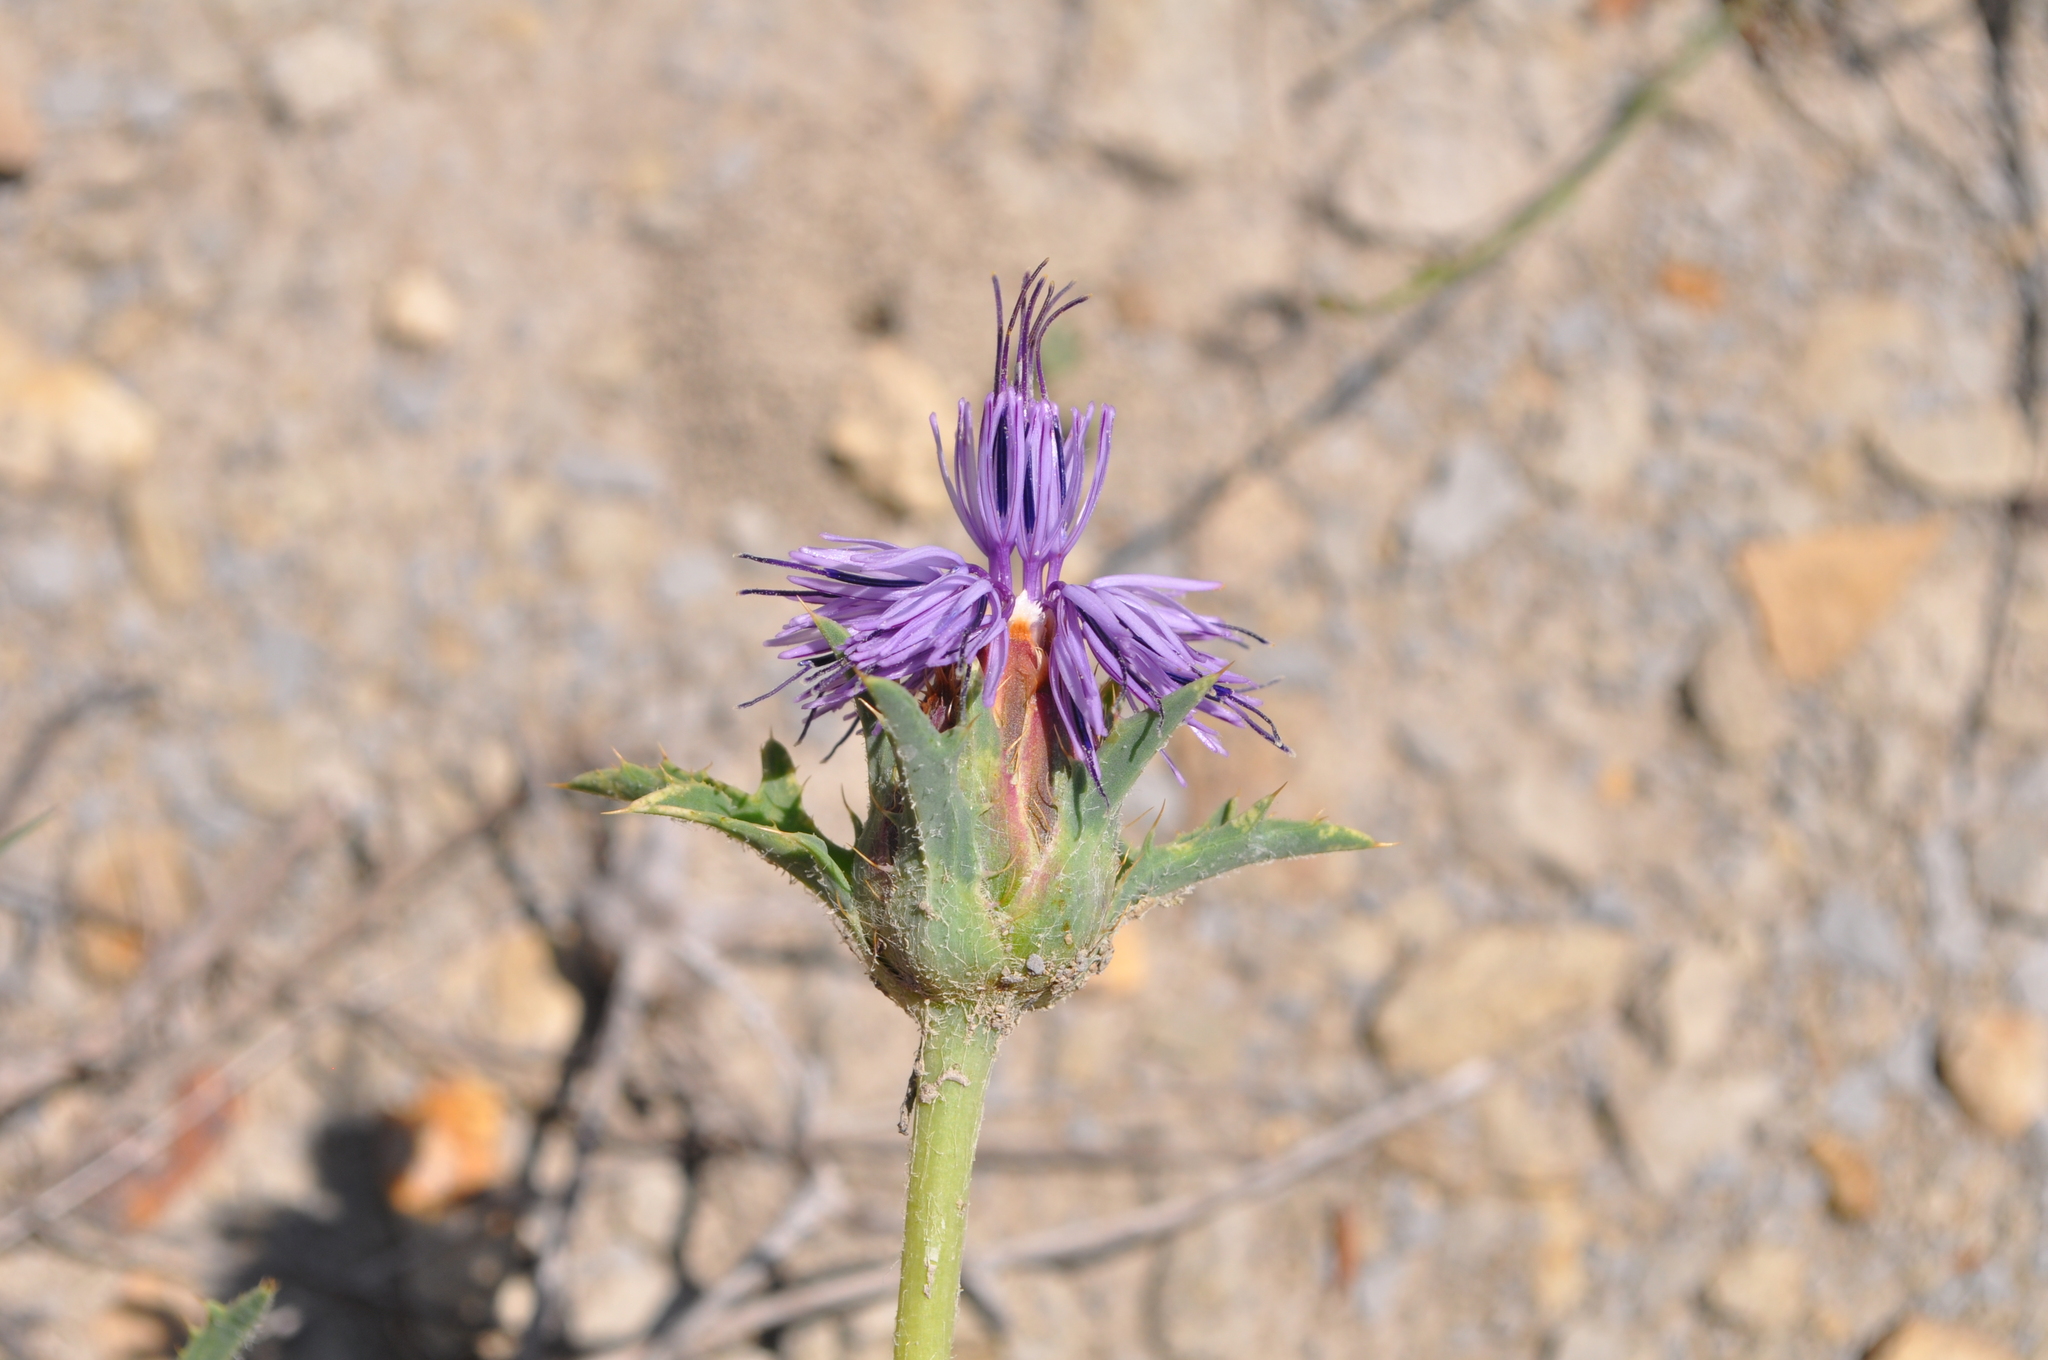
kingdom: Plantae
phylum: Tracheophyta
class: Magnoliopsida
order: Asterales
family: Asteraceae
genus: Carduncellus
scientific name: Carduncellus monspelliensium
